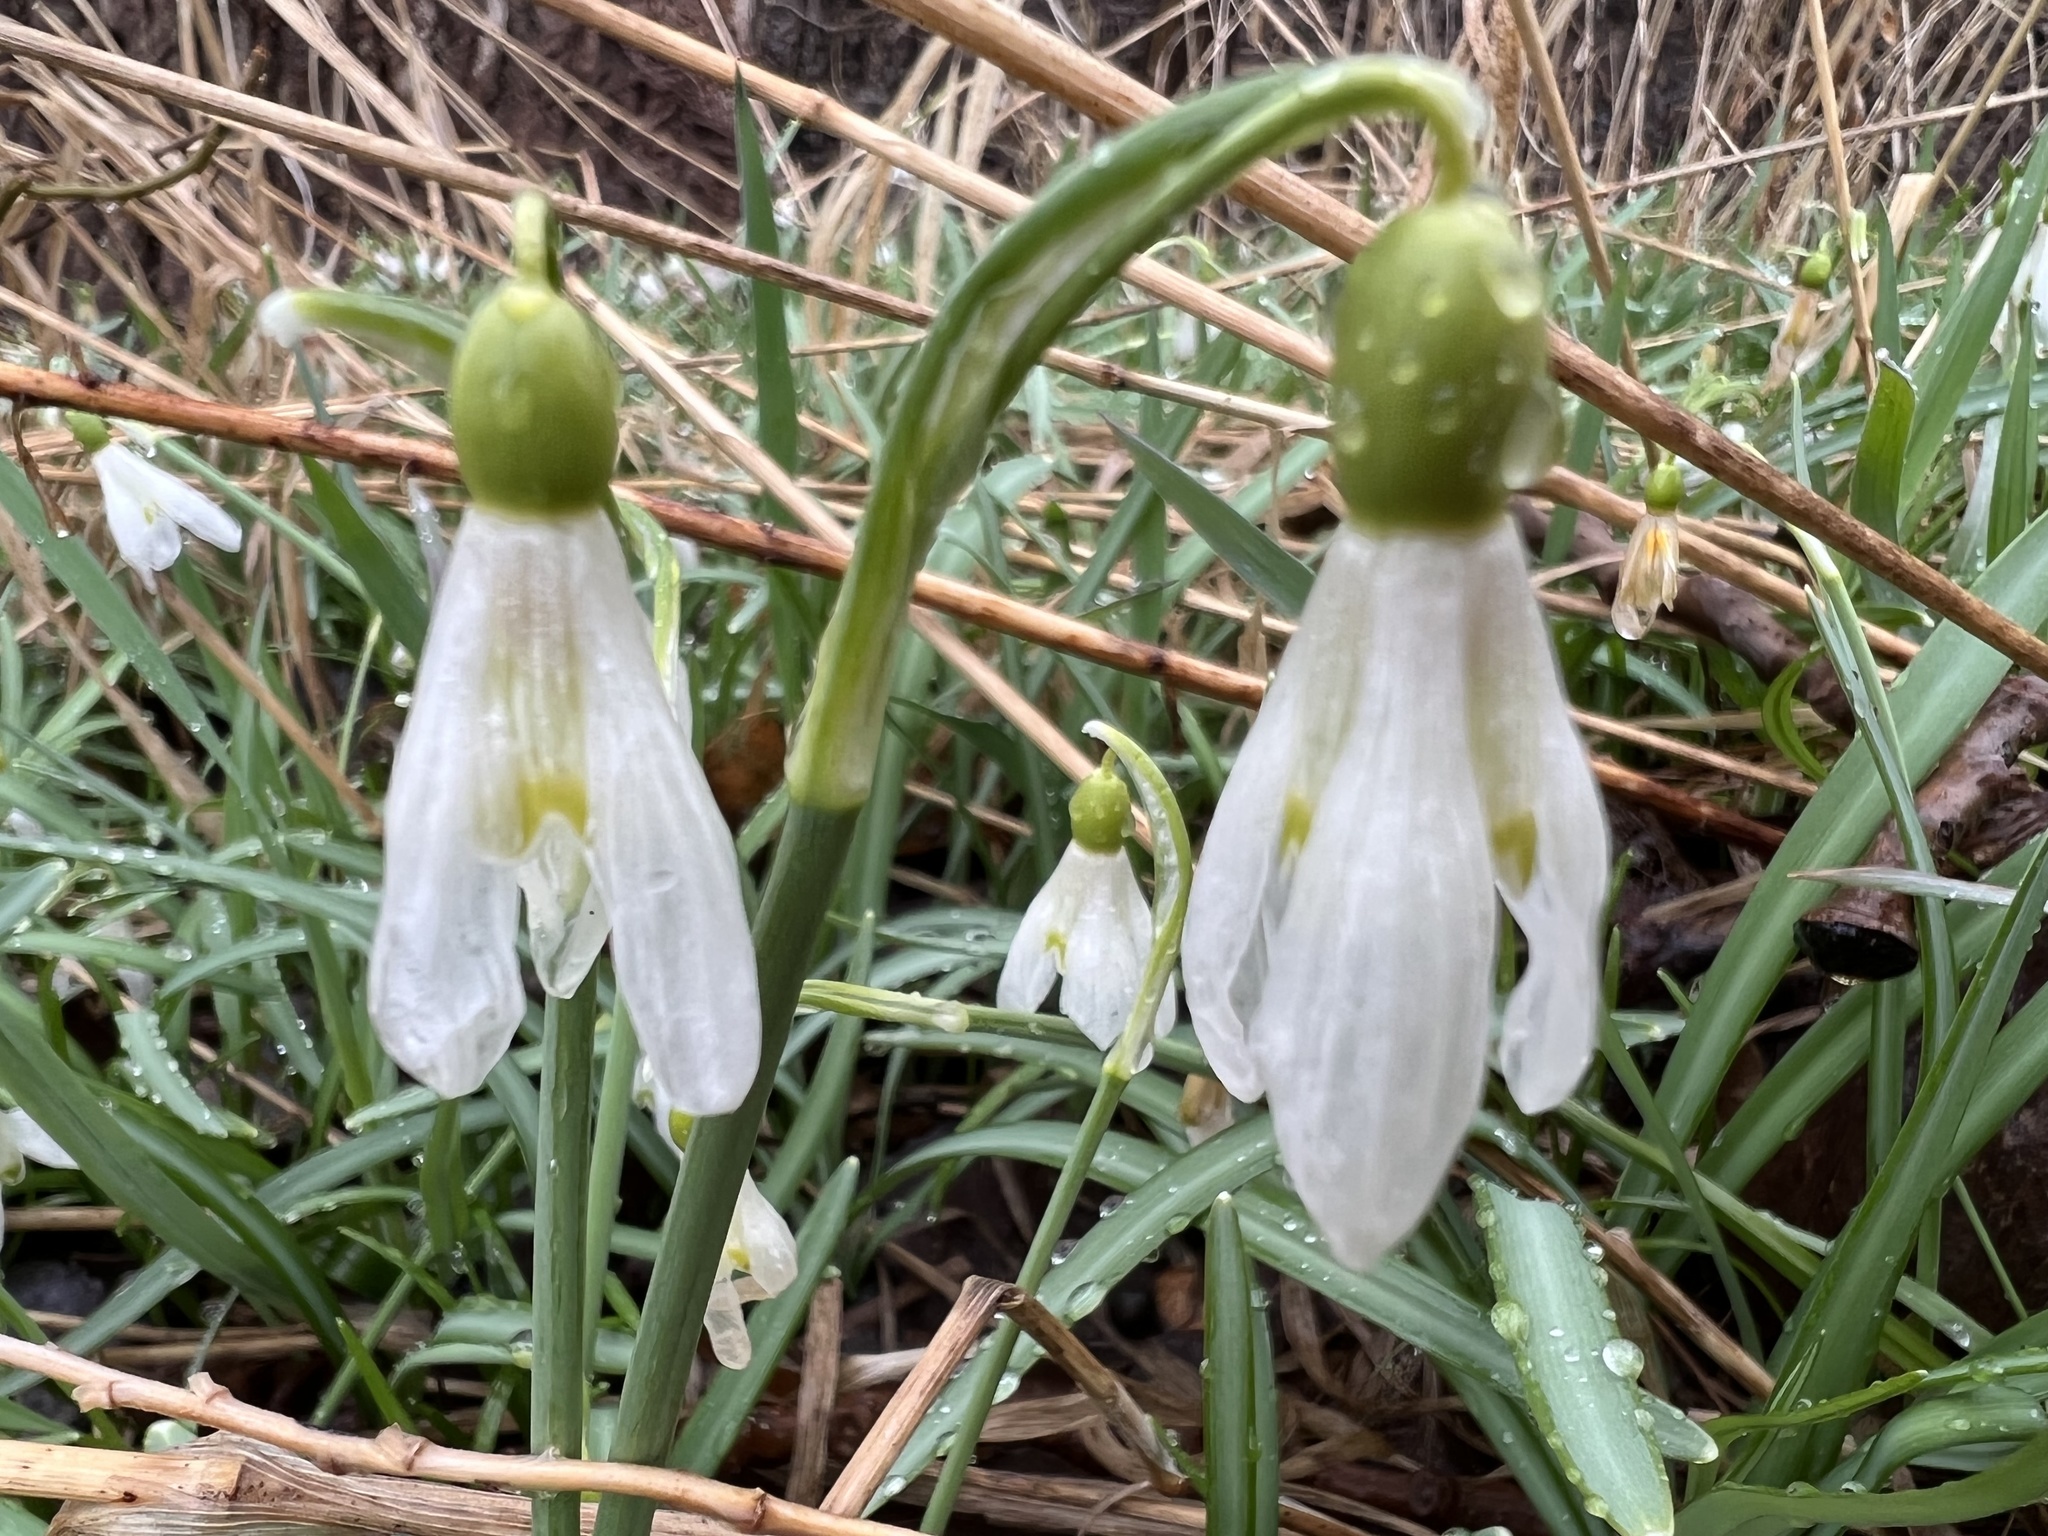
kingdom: Plantae
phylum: Tracheophyta
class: Liliopsida
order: Asparagales
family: Amaryllidaceae
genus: Galanthus
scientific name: Galanthus nivalis
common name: Snowdrop
